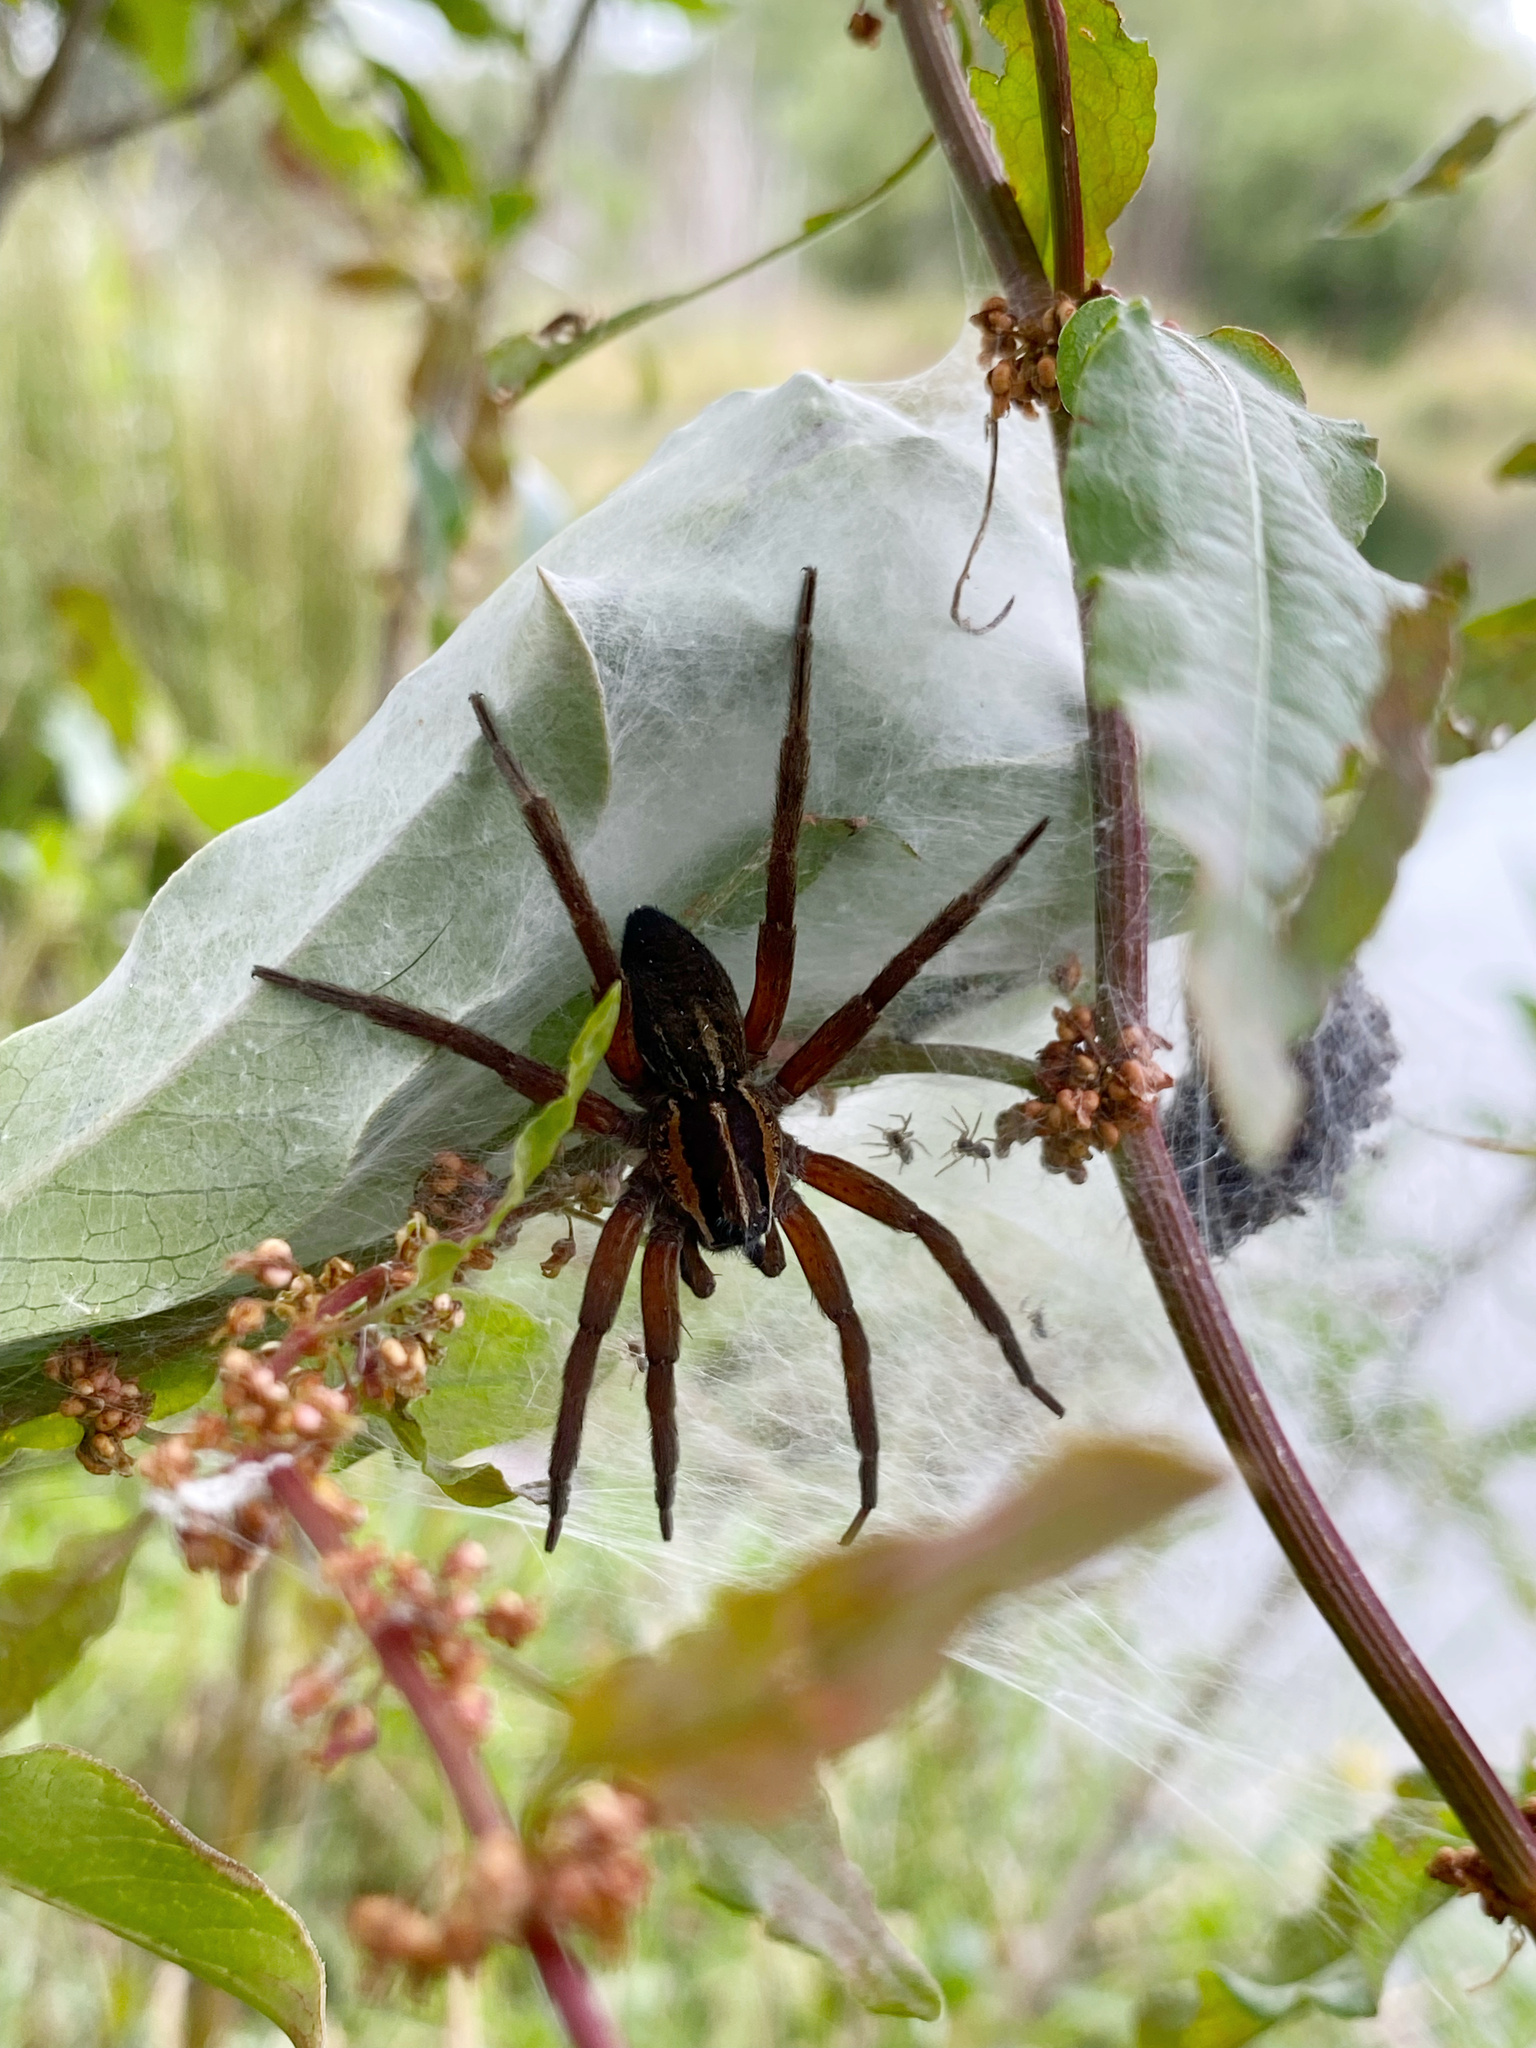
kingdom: Animalia
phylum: Arthropoda
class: Arachnida
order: Araneae
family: Pisauridae
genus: Dolomedes
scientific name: Dolomedes minor
